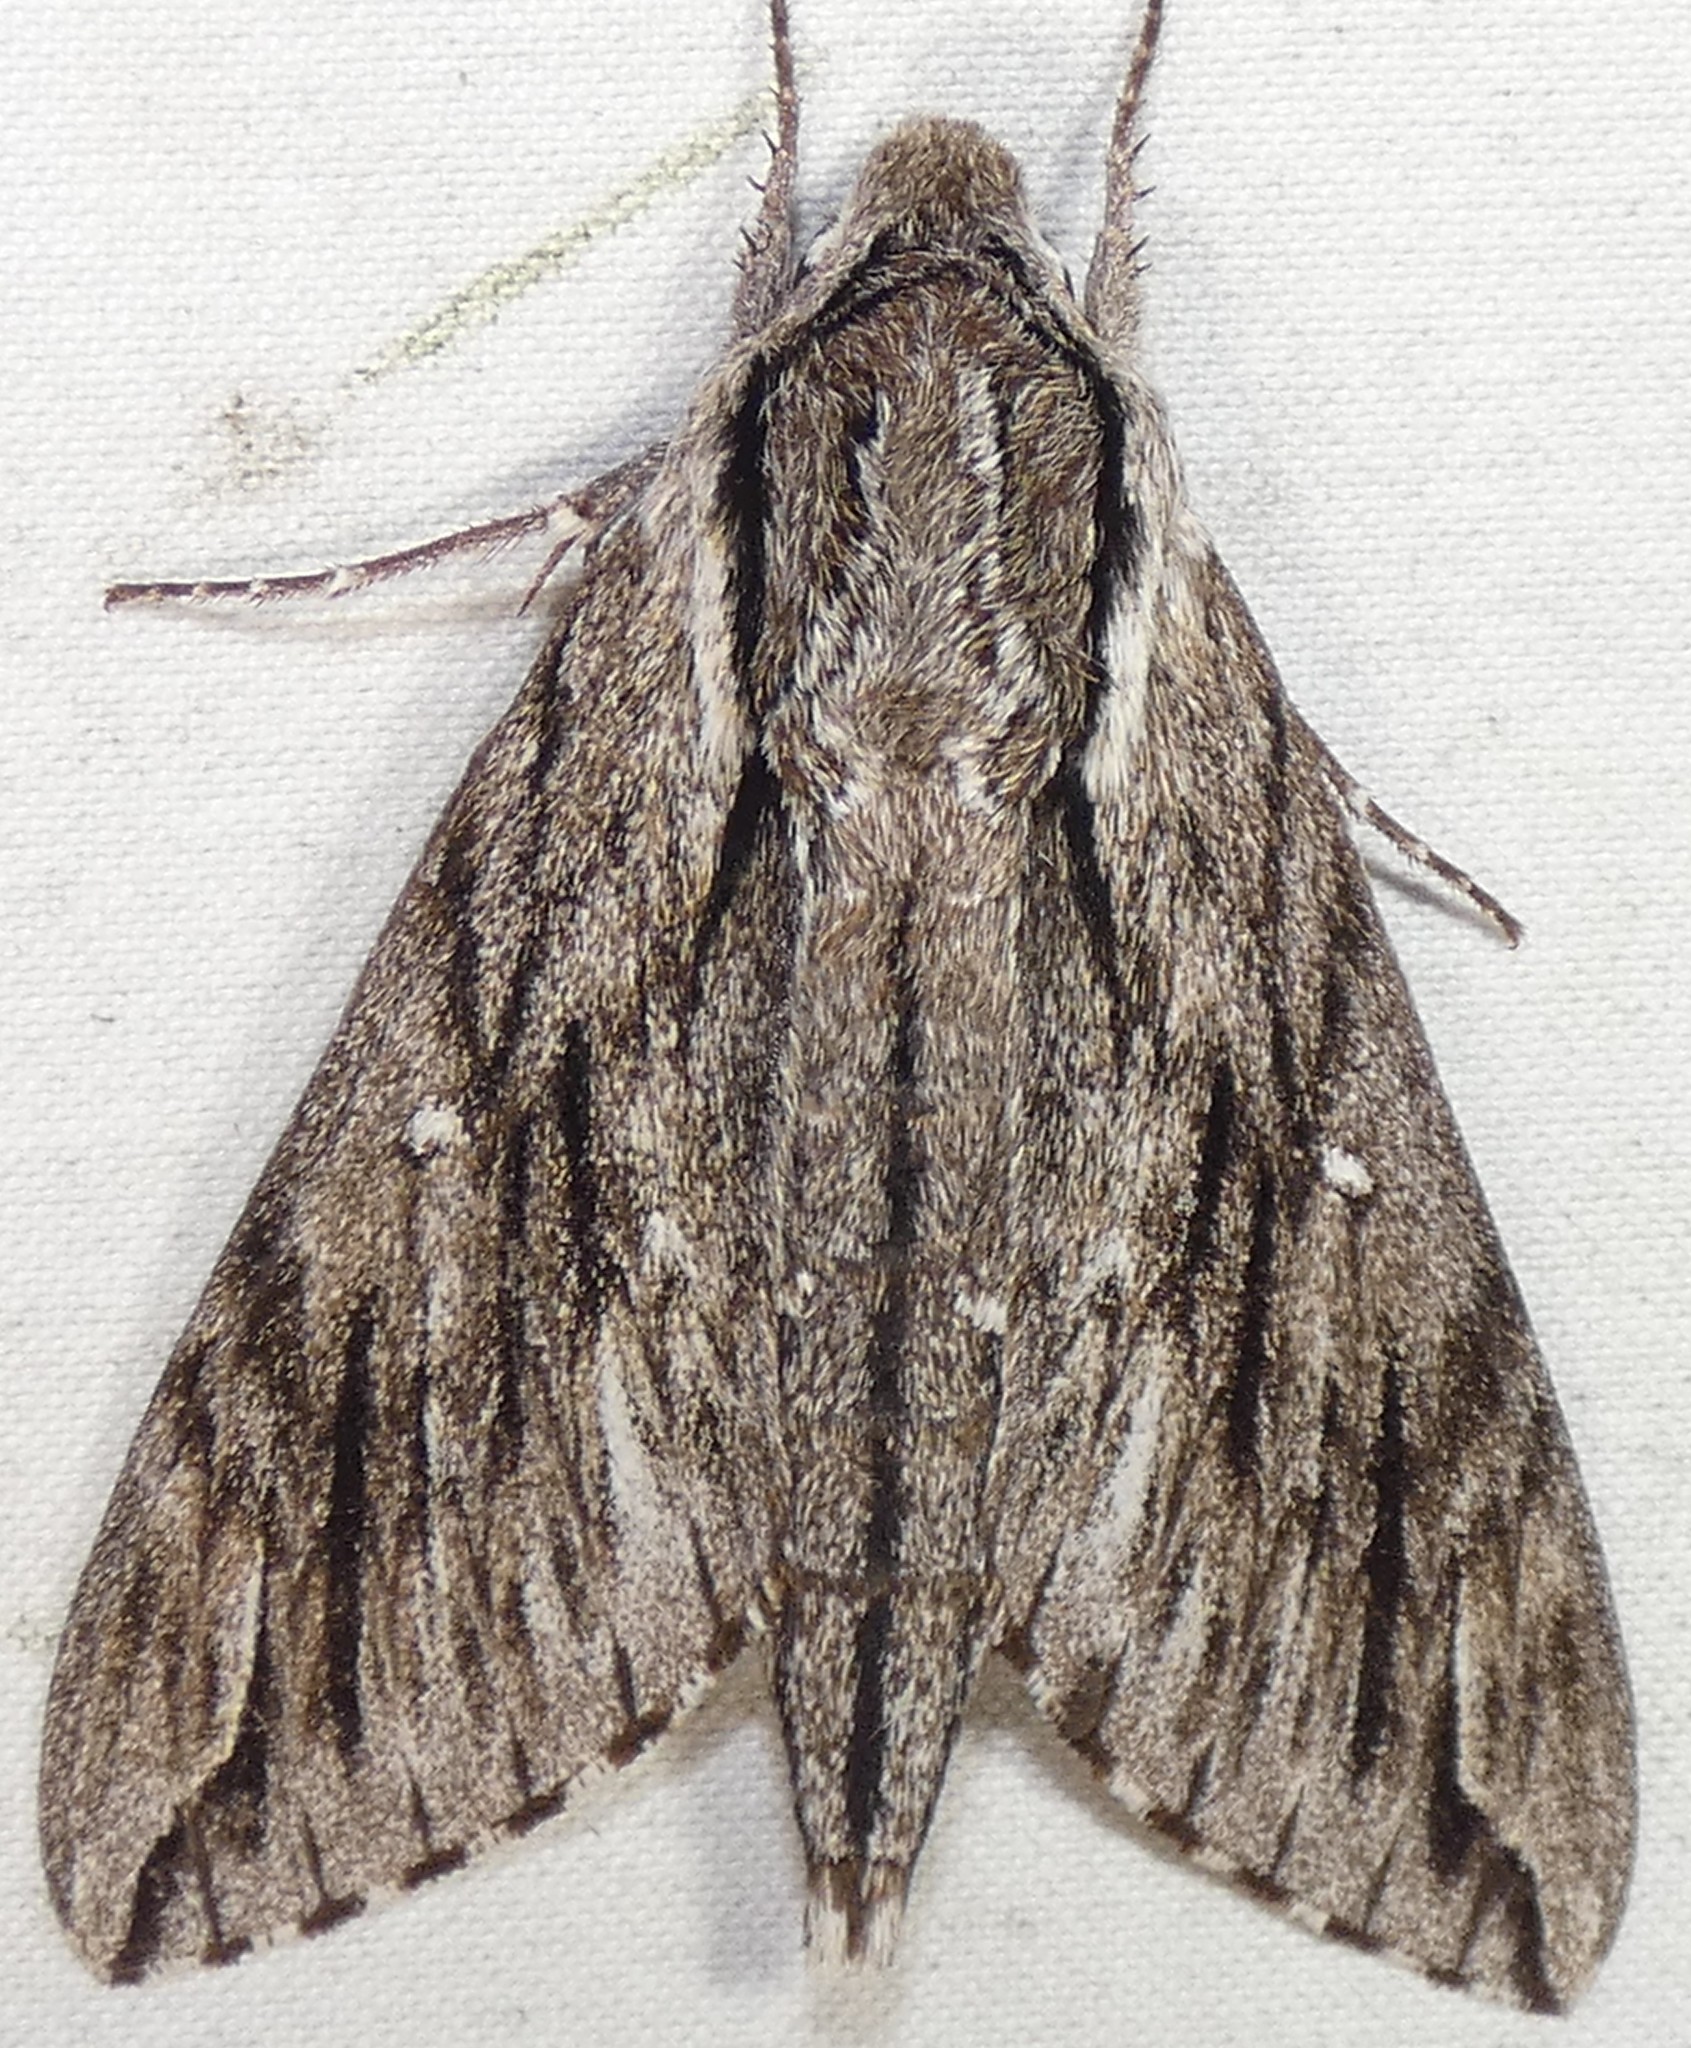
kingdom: Animalia
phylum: Arthropoda
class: Insecta
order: Lepidoptera
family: Sphingidae
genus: Paratrea
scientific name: Paratrea plebeja
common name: Plebian sphinx
